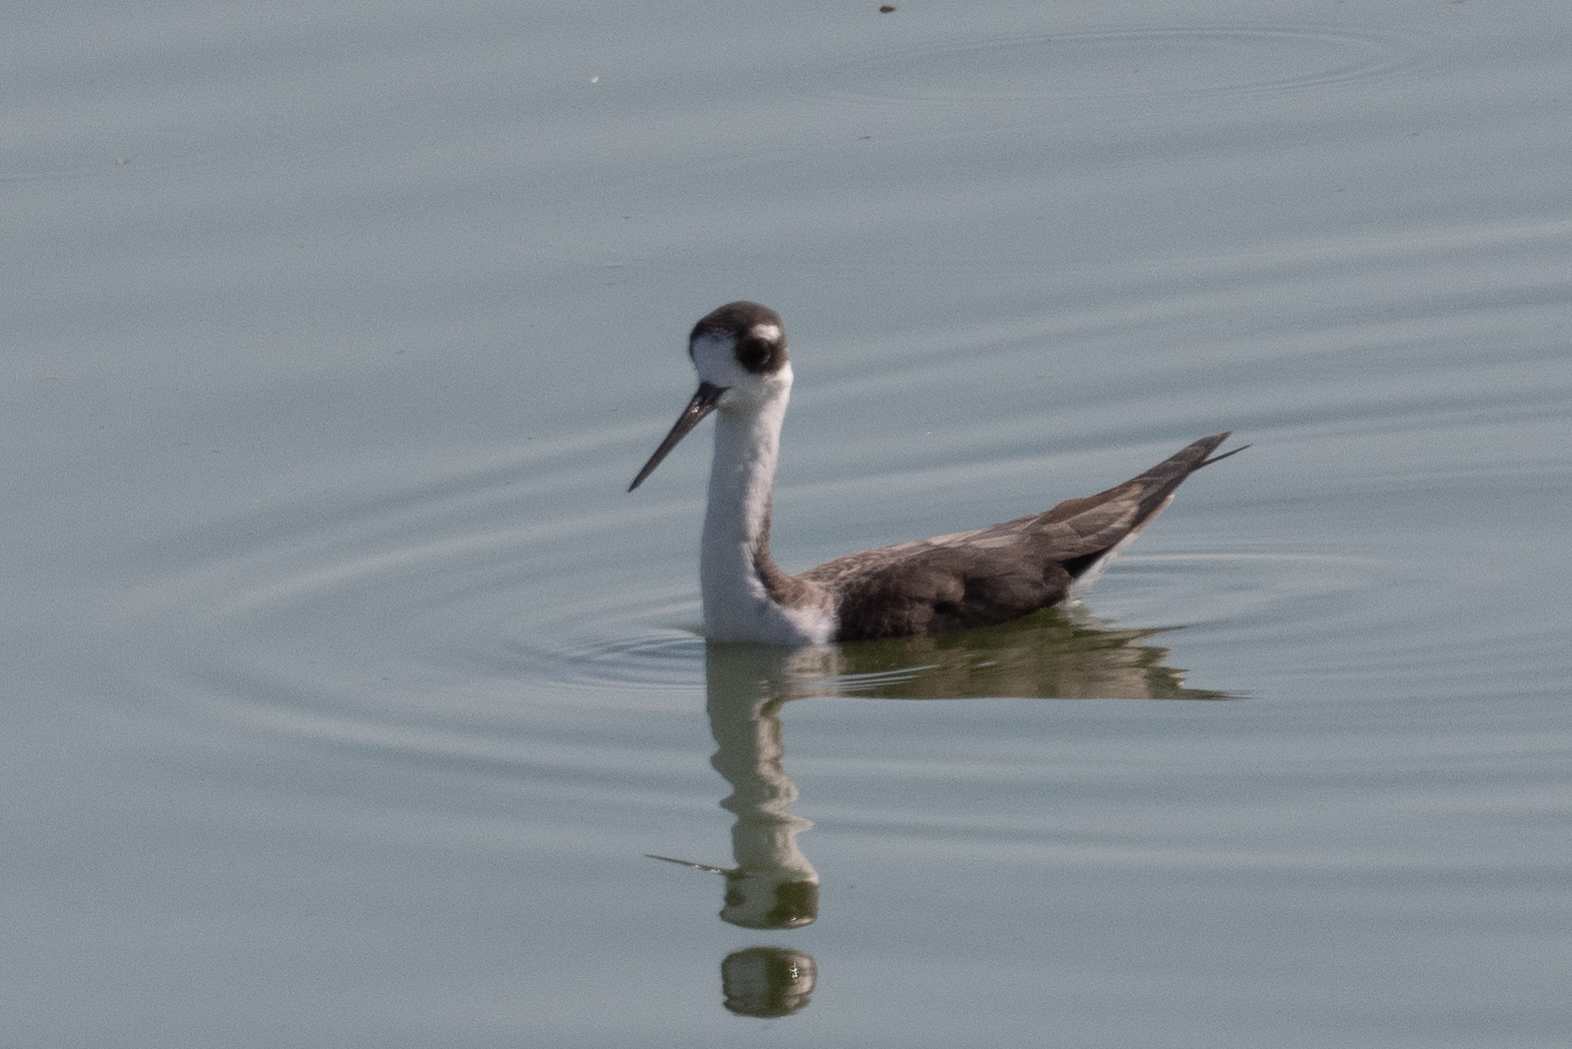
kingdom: Animalia
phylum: Chordata
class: Aves
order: Charadriiformes
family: Recurvirostridae
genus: Himantopus
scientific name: Himantopus mexicanus
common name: Black-necked stilt
